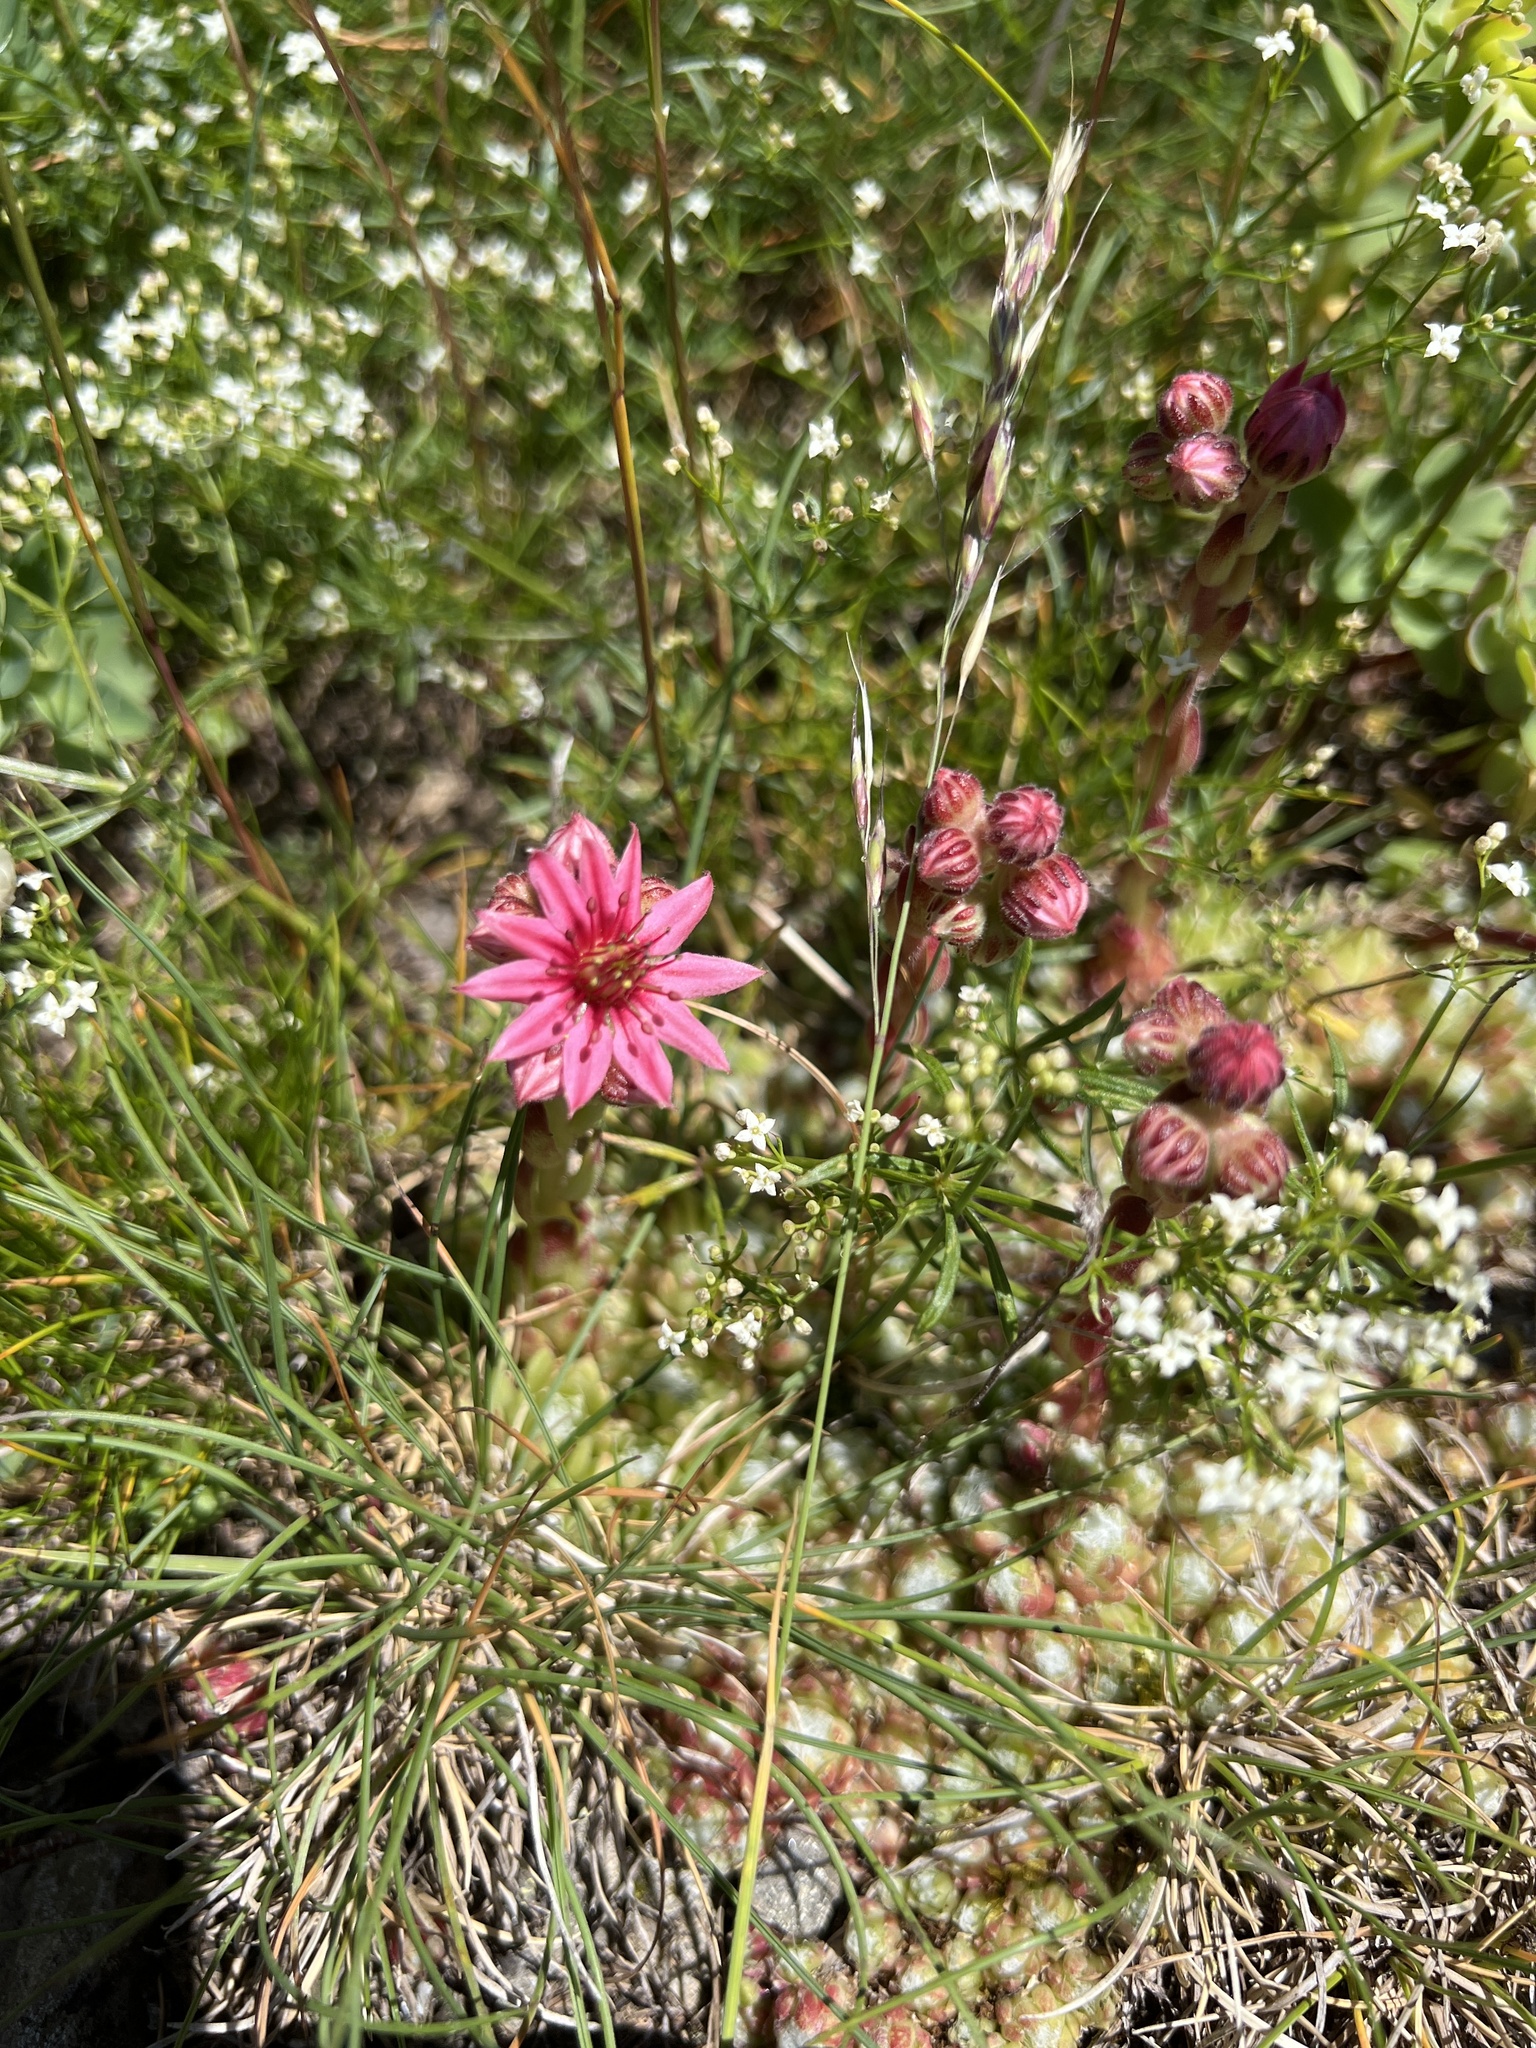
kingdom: Plantae
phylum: Tracheophyta
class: Magnoliopsida
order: Saxifragales
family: Crassulaceae
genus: Sempervivum
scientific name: Sempervivum arachnoideum
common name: Cobweb house-leek
